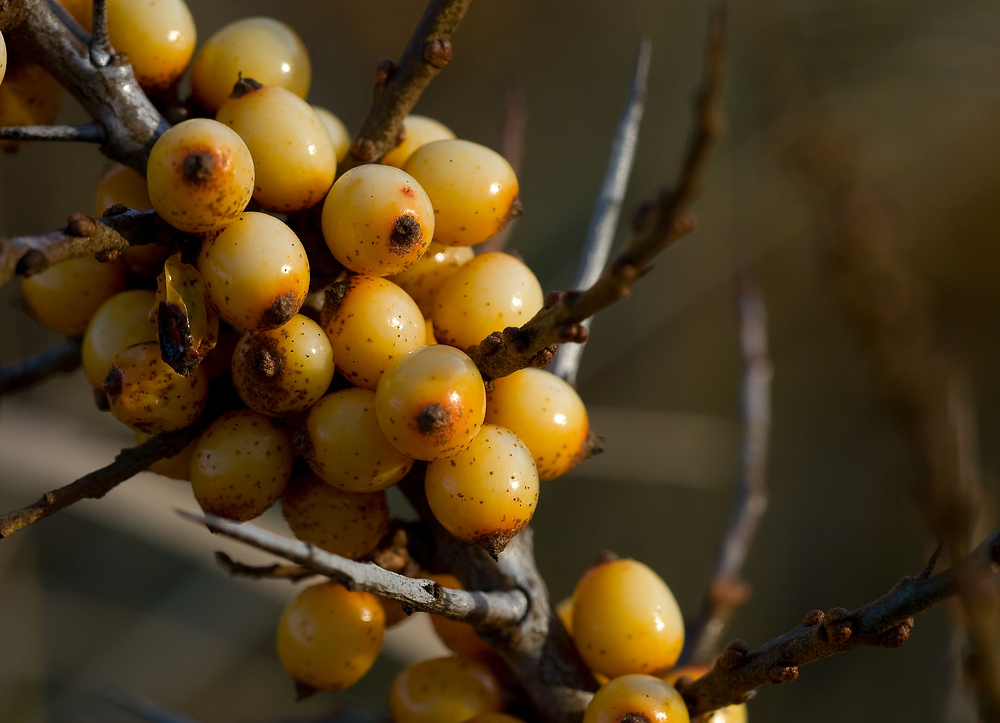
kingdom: Plantae
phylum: Tracheophyta
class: Magnoliopsida
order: Rosales
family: Elaeagnaceae
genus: Hippophae
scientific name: Hippophae rhamnoides
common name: Sea-buckthorn
